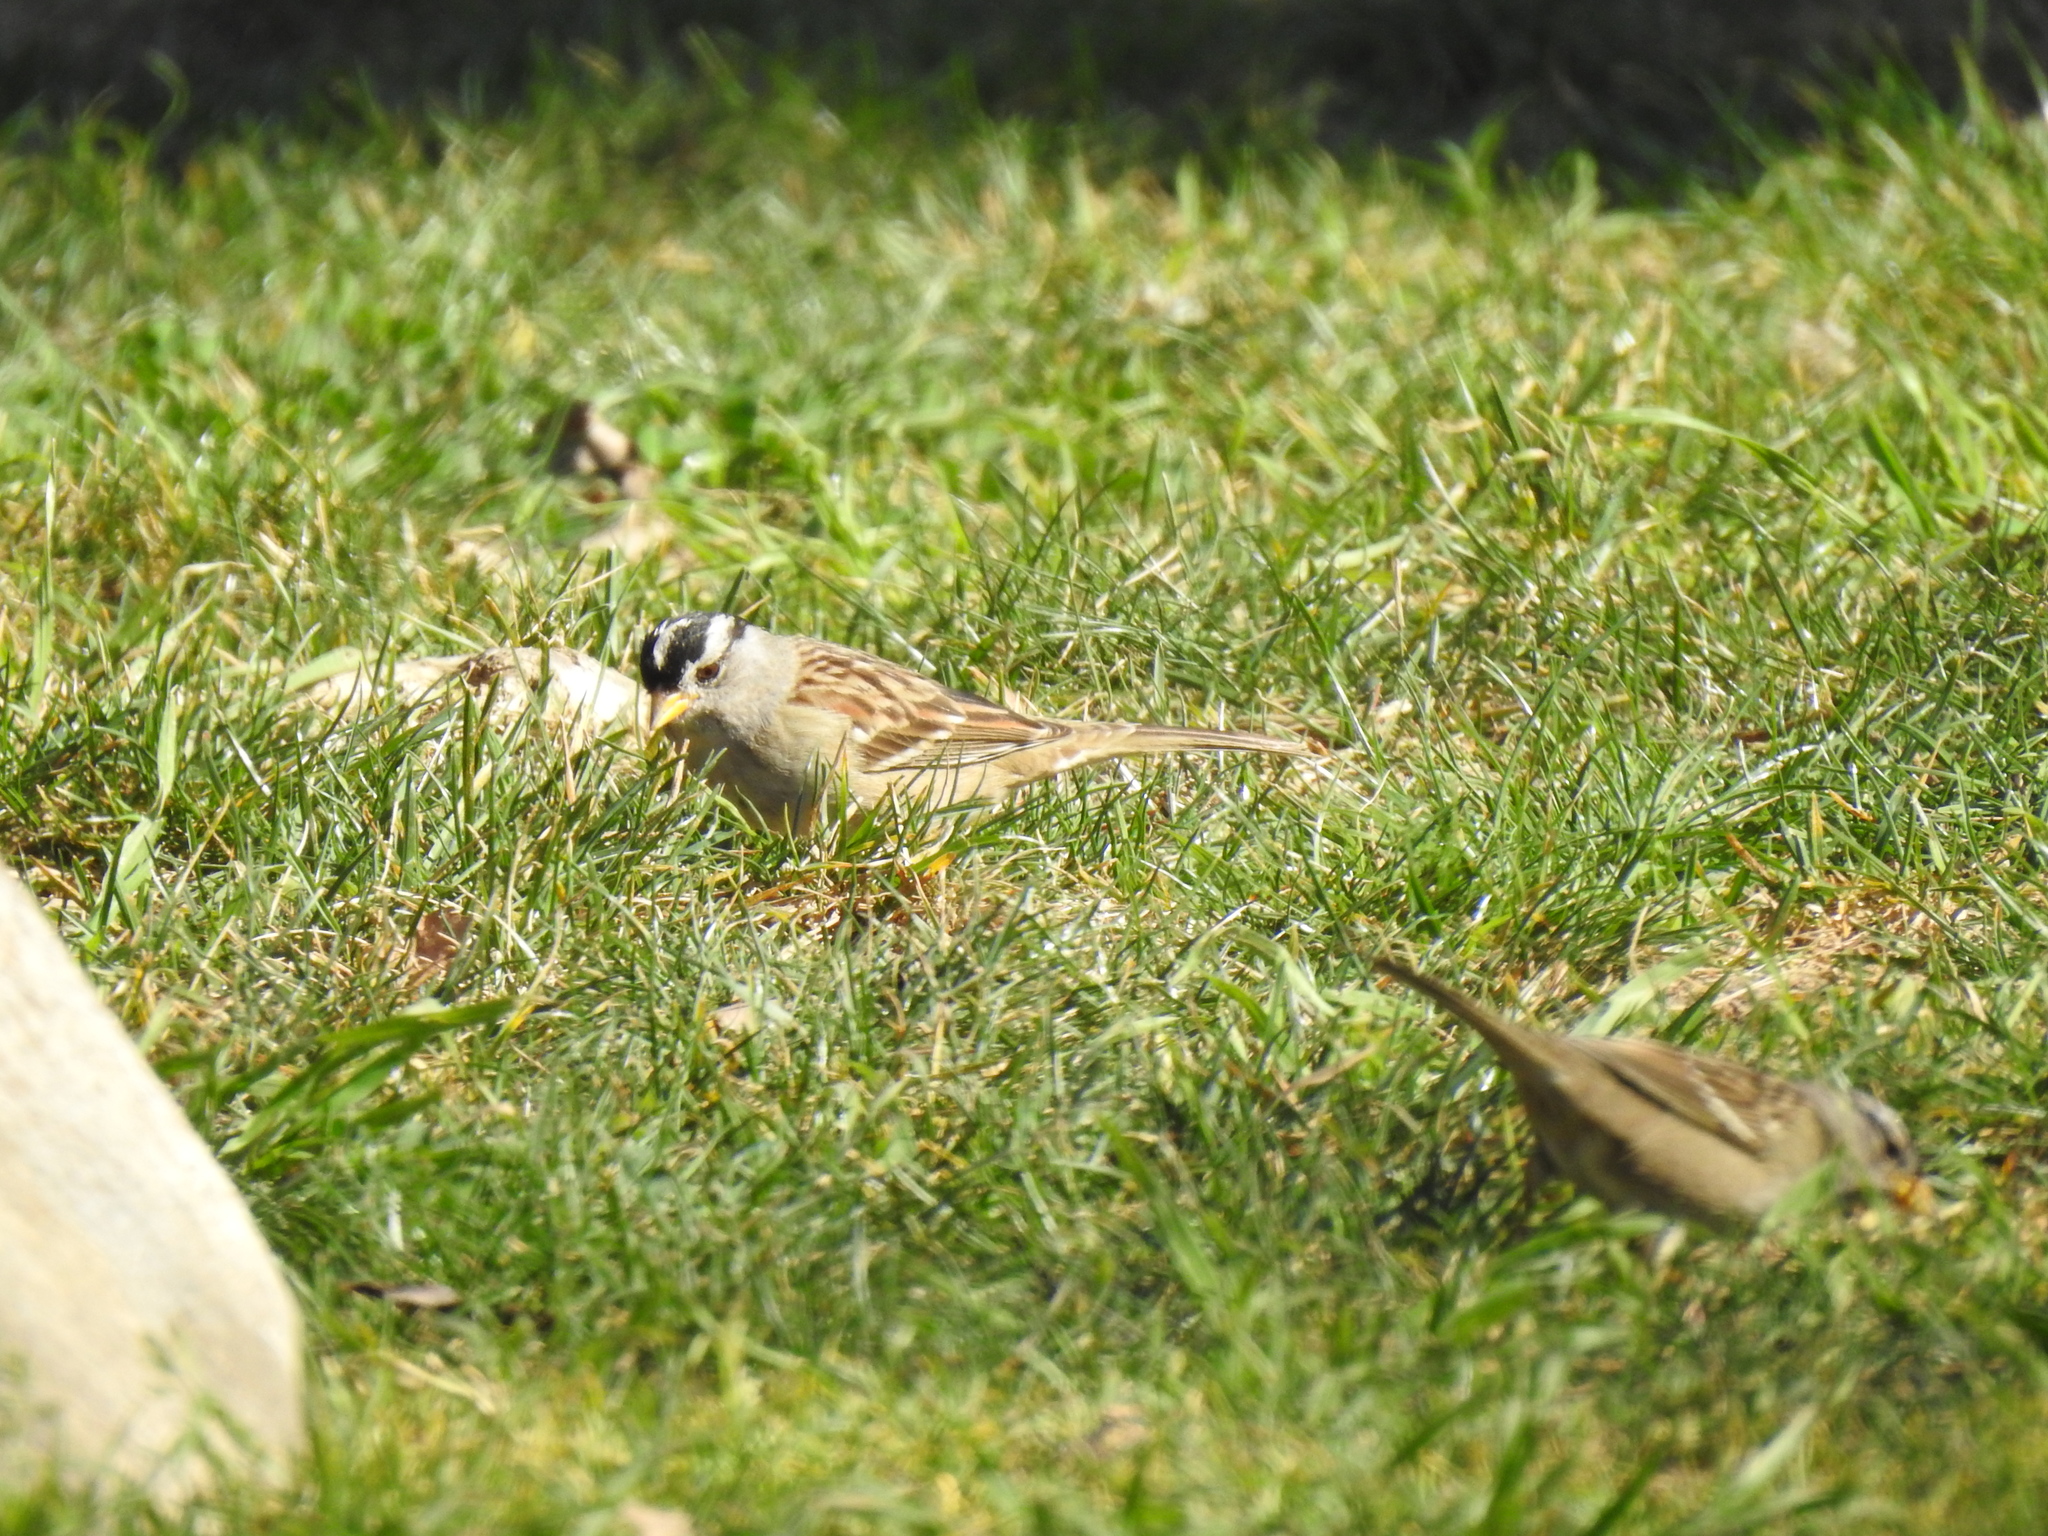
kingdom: Animalia
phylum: Chordata
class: Aves
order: Passeriformes
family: Passerellidae
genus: Zonotrichia
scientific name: Zonotrichia leucophrys
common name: White-crowned sparrow
